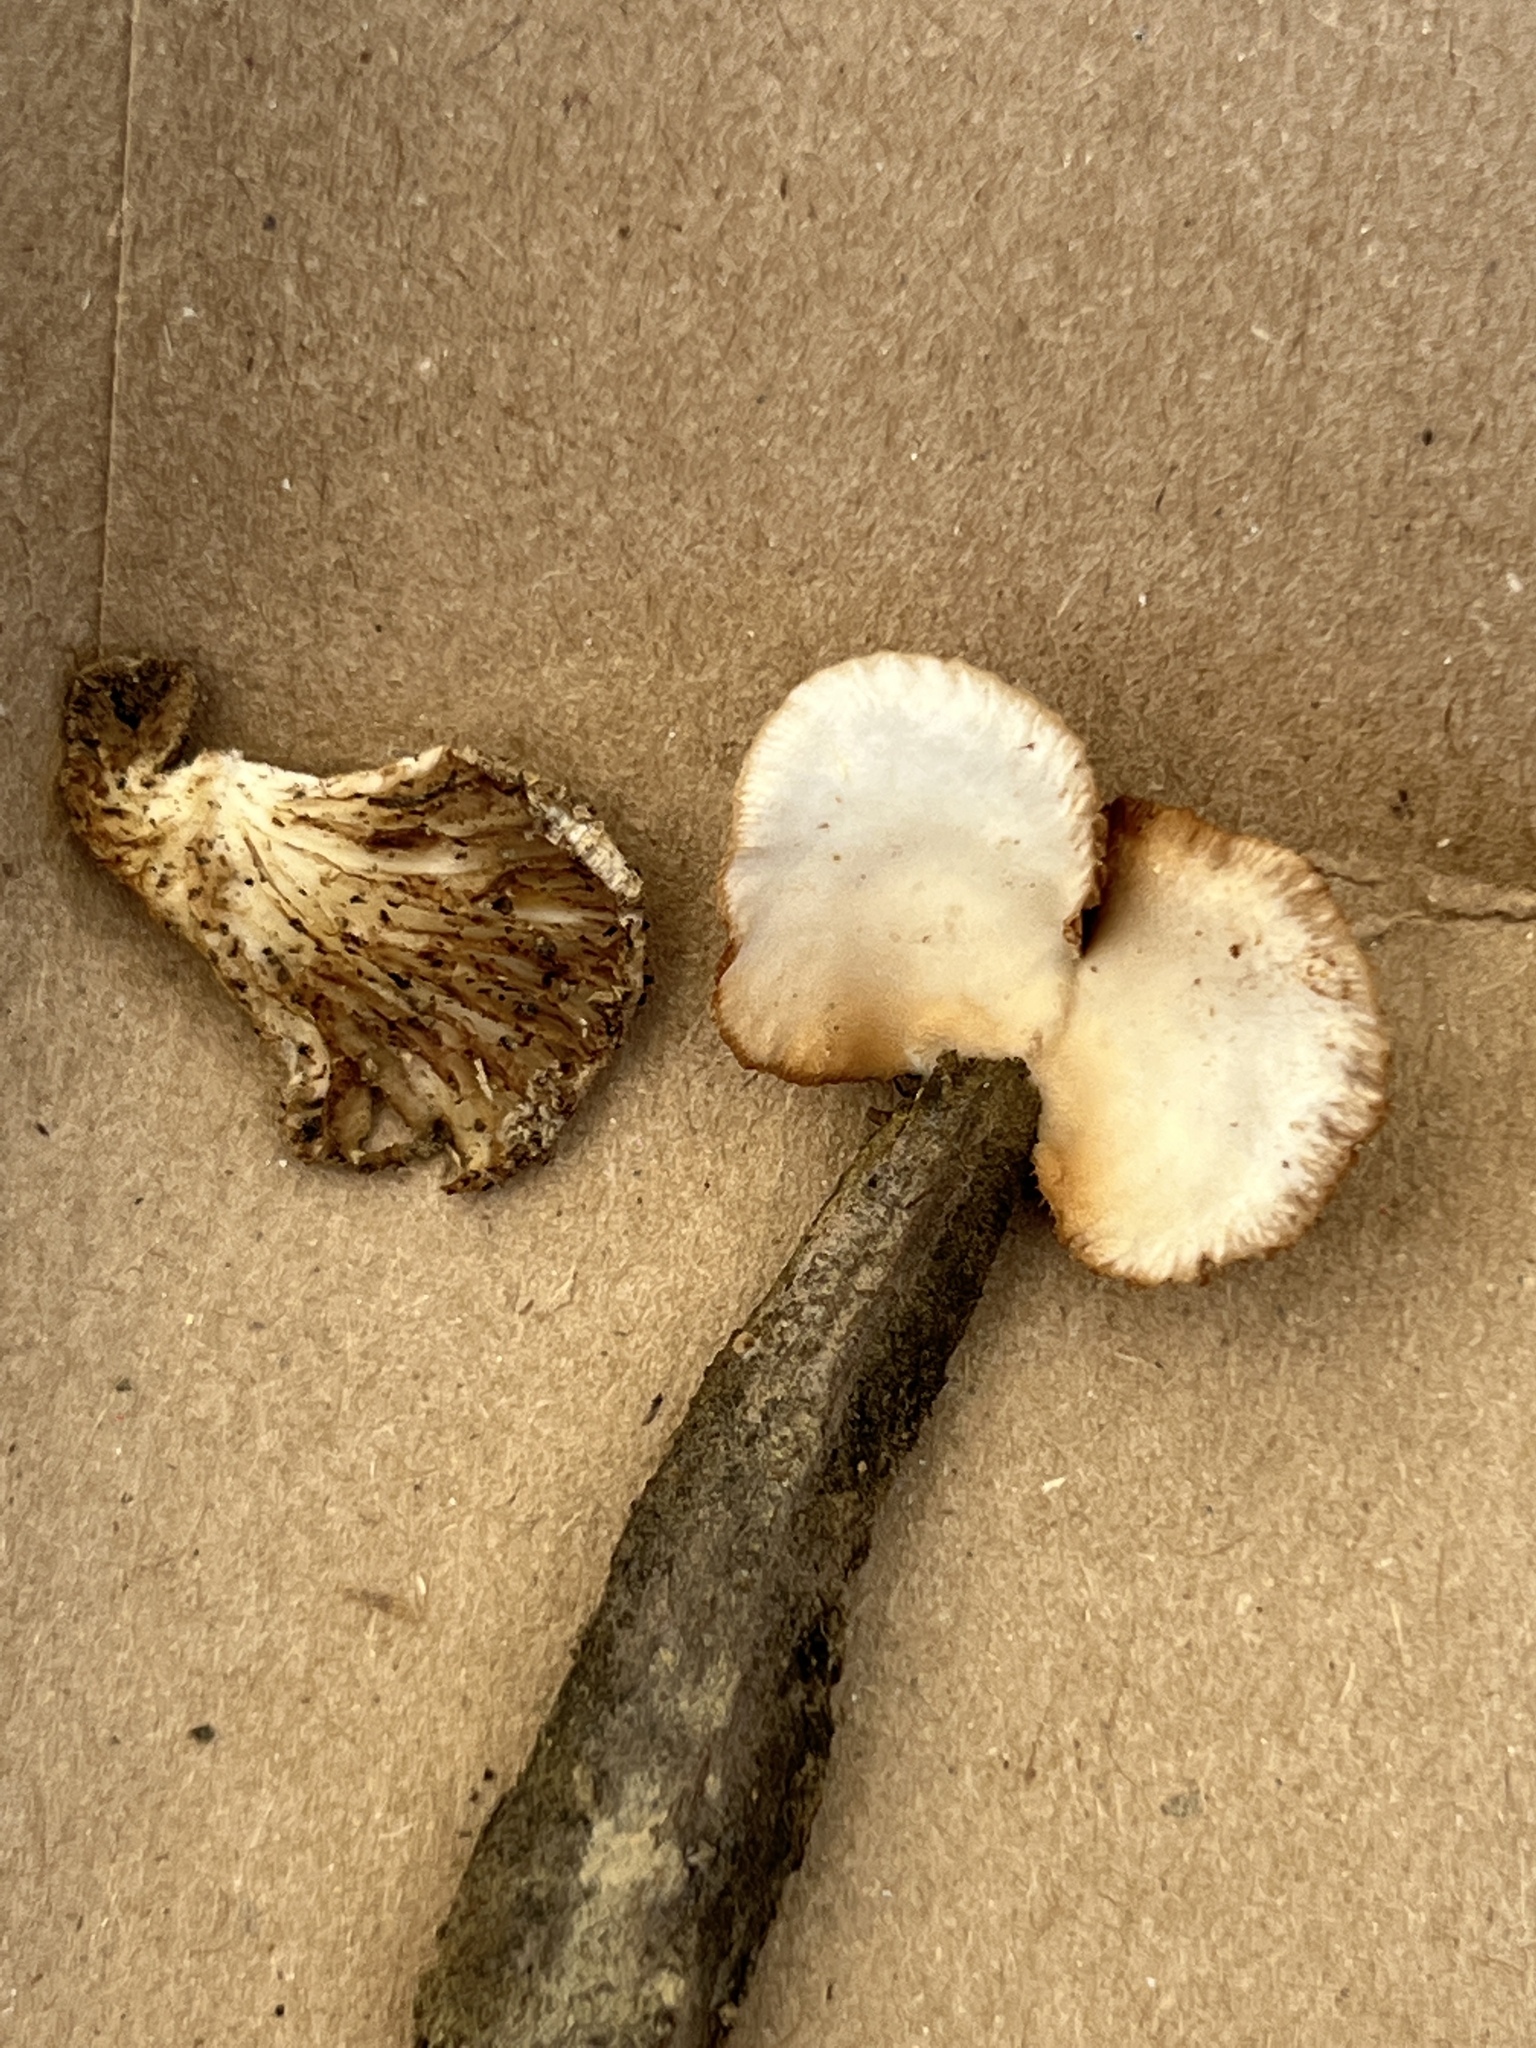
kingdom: Fungi
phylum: Basidiomycota
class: Agaricomycetes
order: Agaricales
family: Crepidotaceae
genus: Crepidotus
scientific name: Crepidotus applanatus
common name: Flat crep
